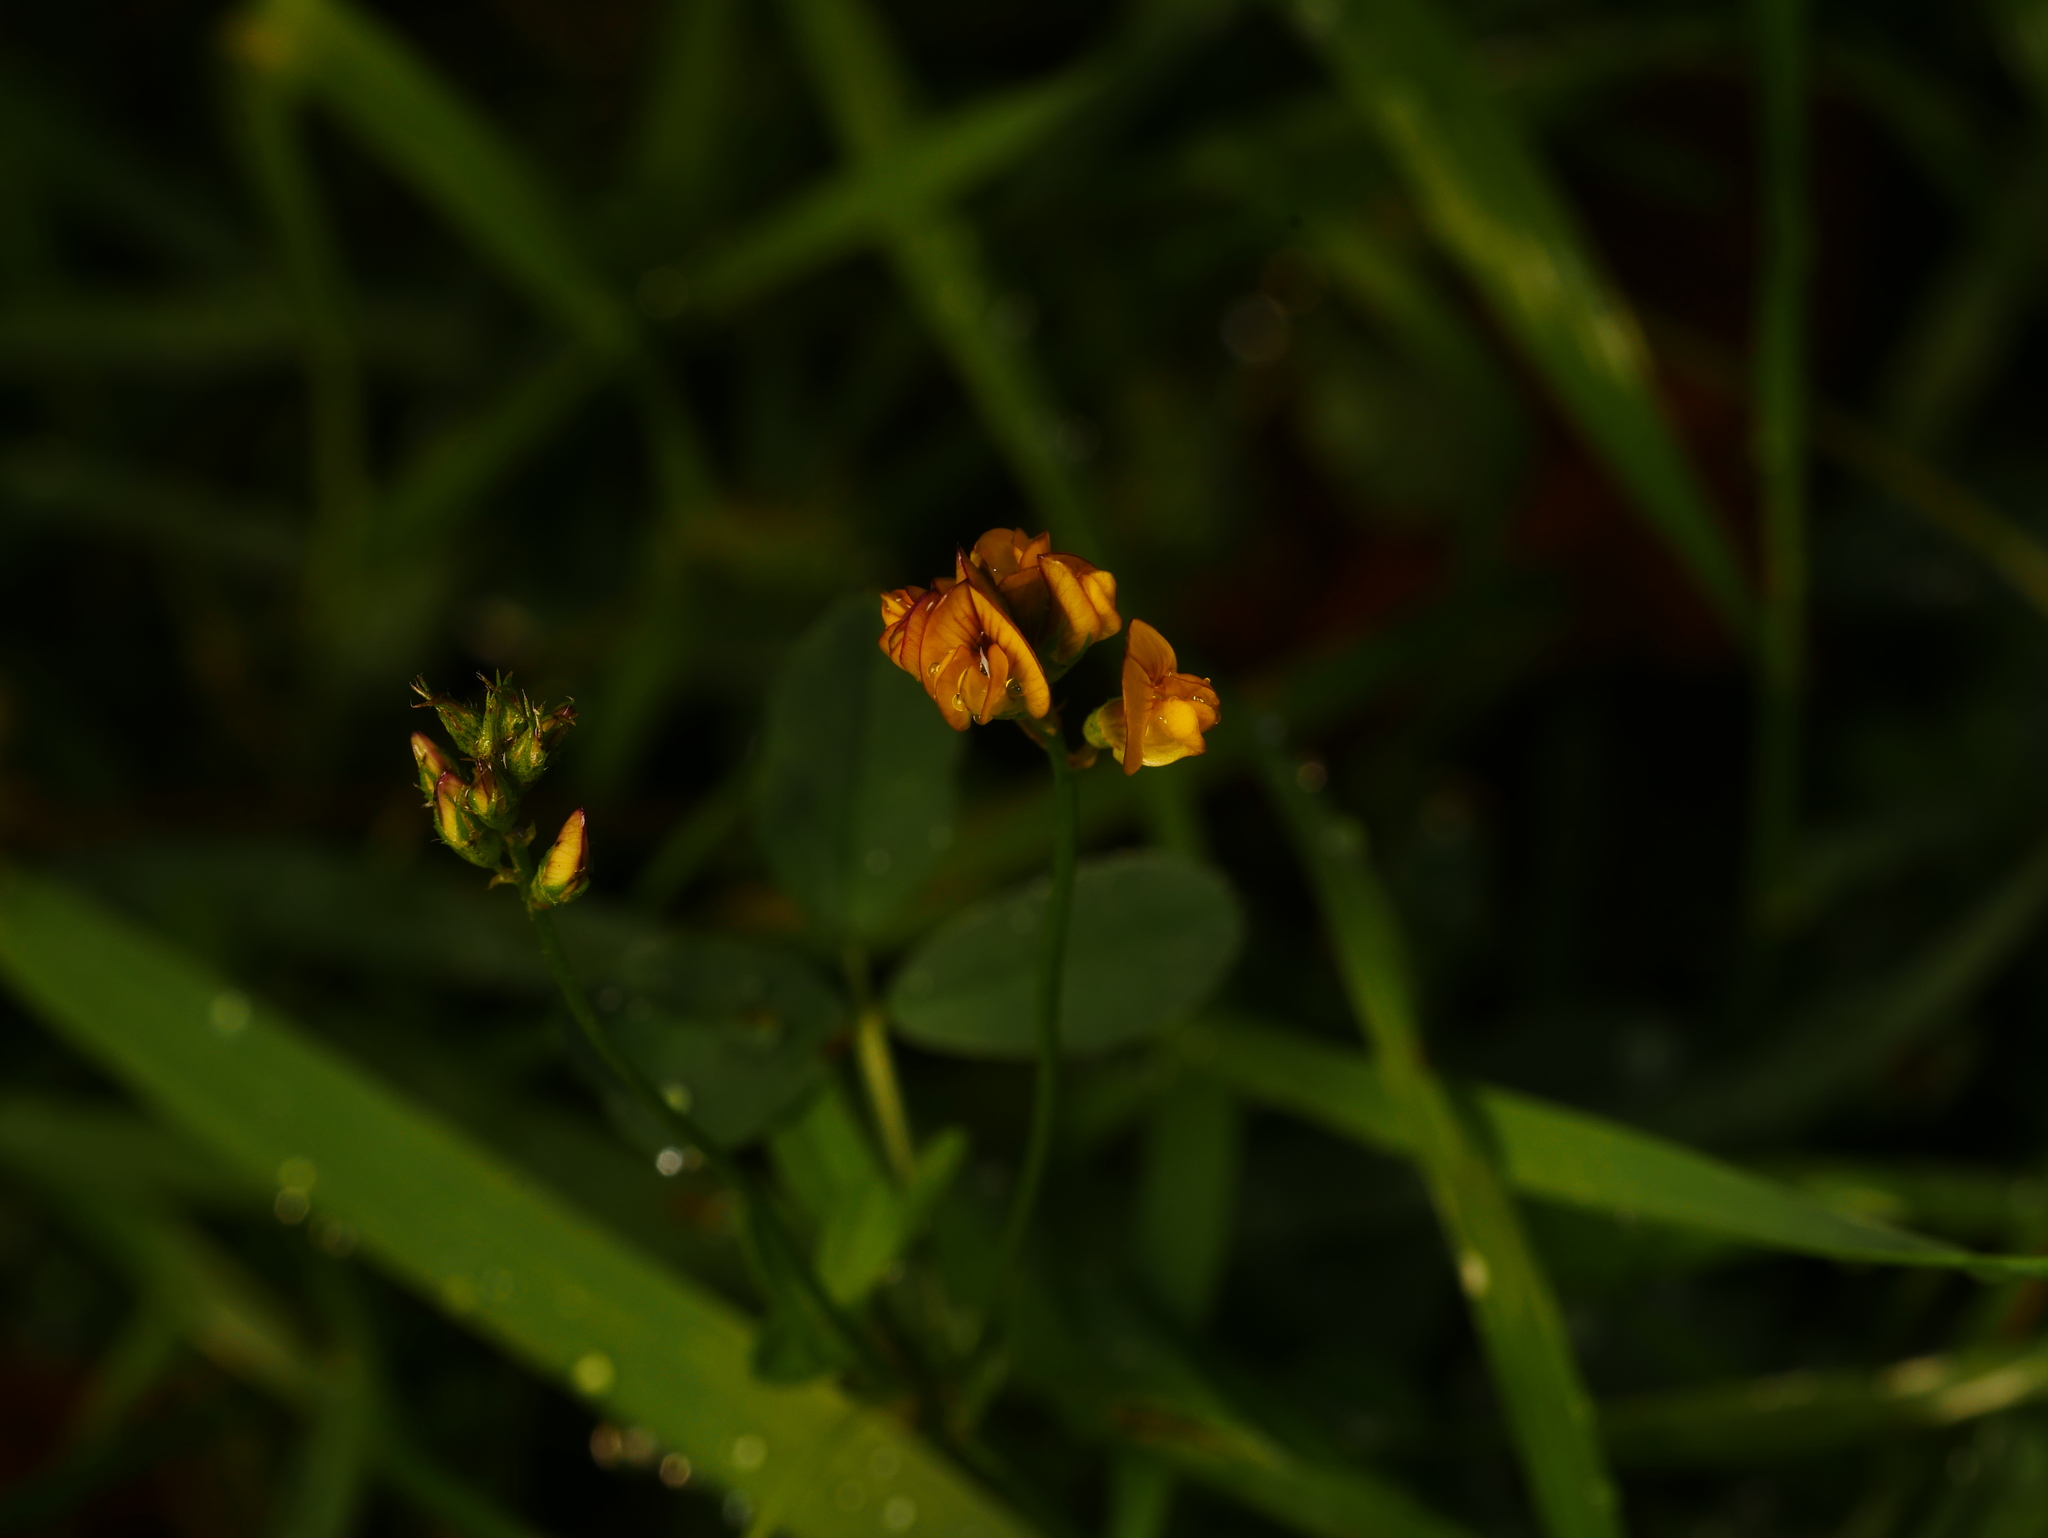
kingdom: Plantae
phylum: Tracheophyta
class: Magnoliopsida
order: Fabales
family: Fabaceae
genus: Lotus
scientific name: Lotus corniculatus
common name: Common bird's-foot-trefoil
